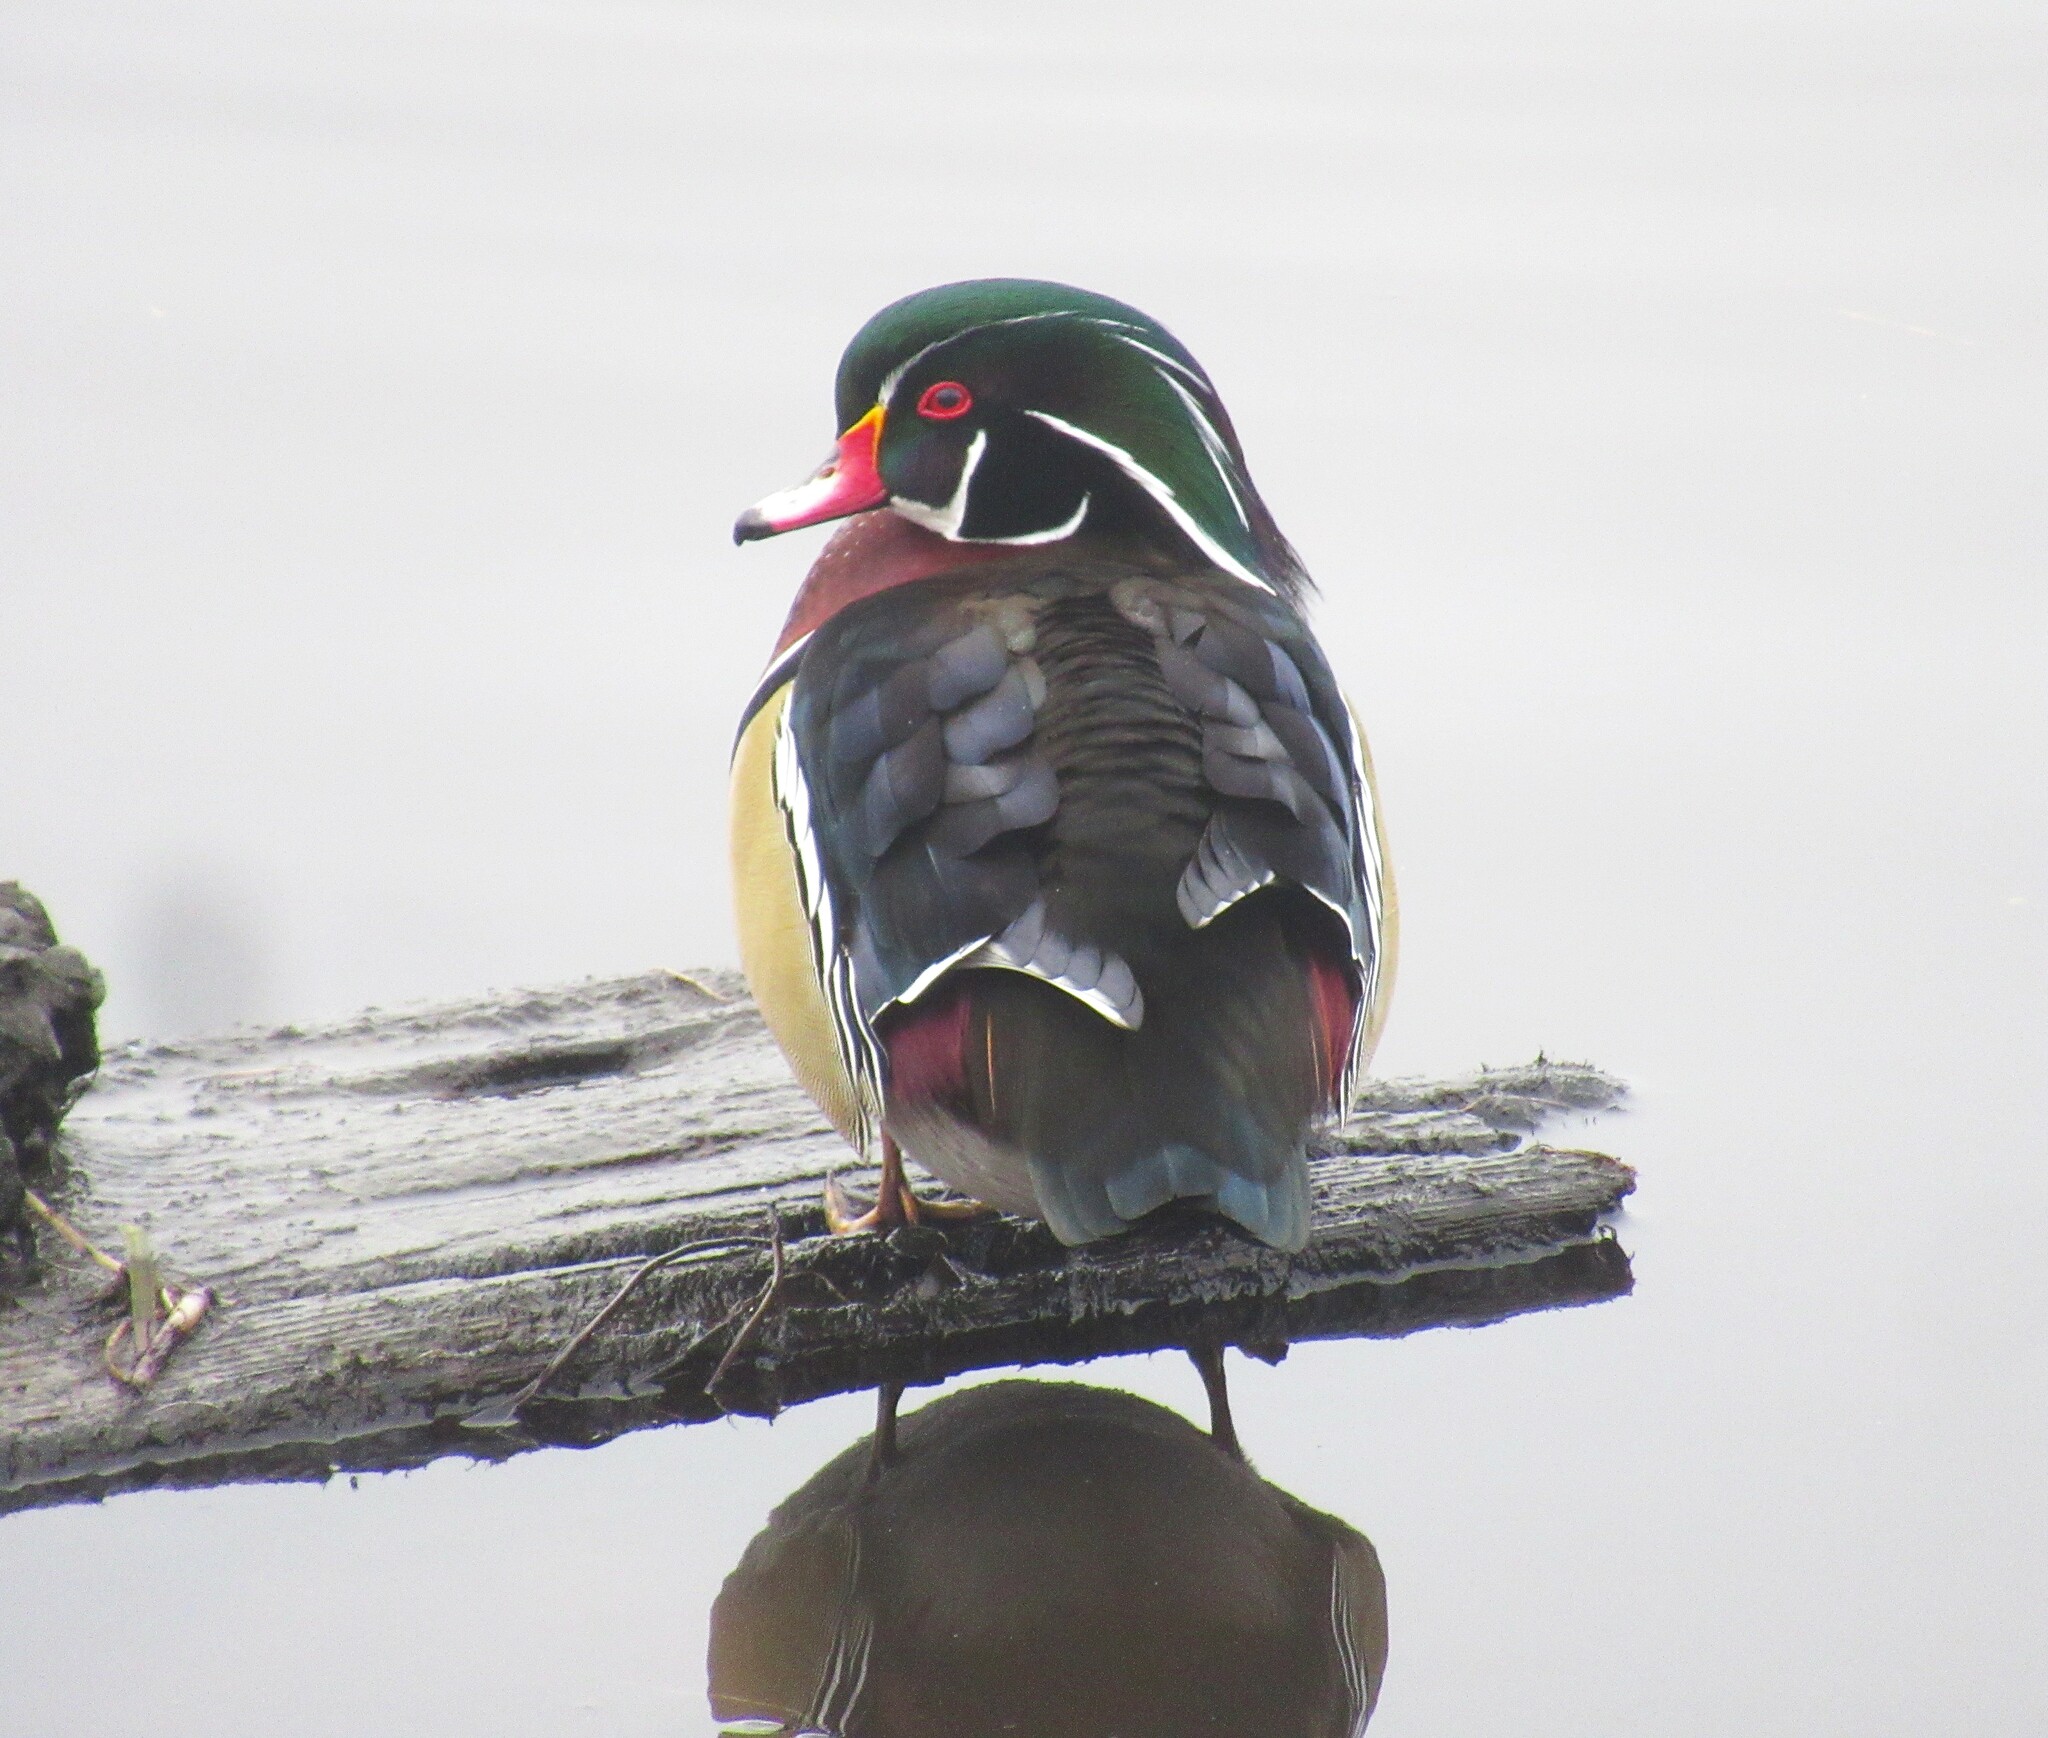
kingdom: Animalia
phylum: Chordata
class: Aves
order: Anseriformes
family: Anatidae
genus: Aix
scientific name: Aix sponsa
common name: Wood duck
